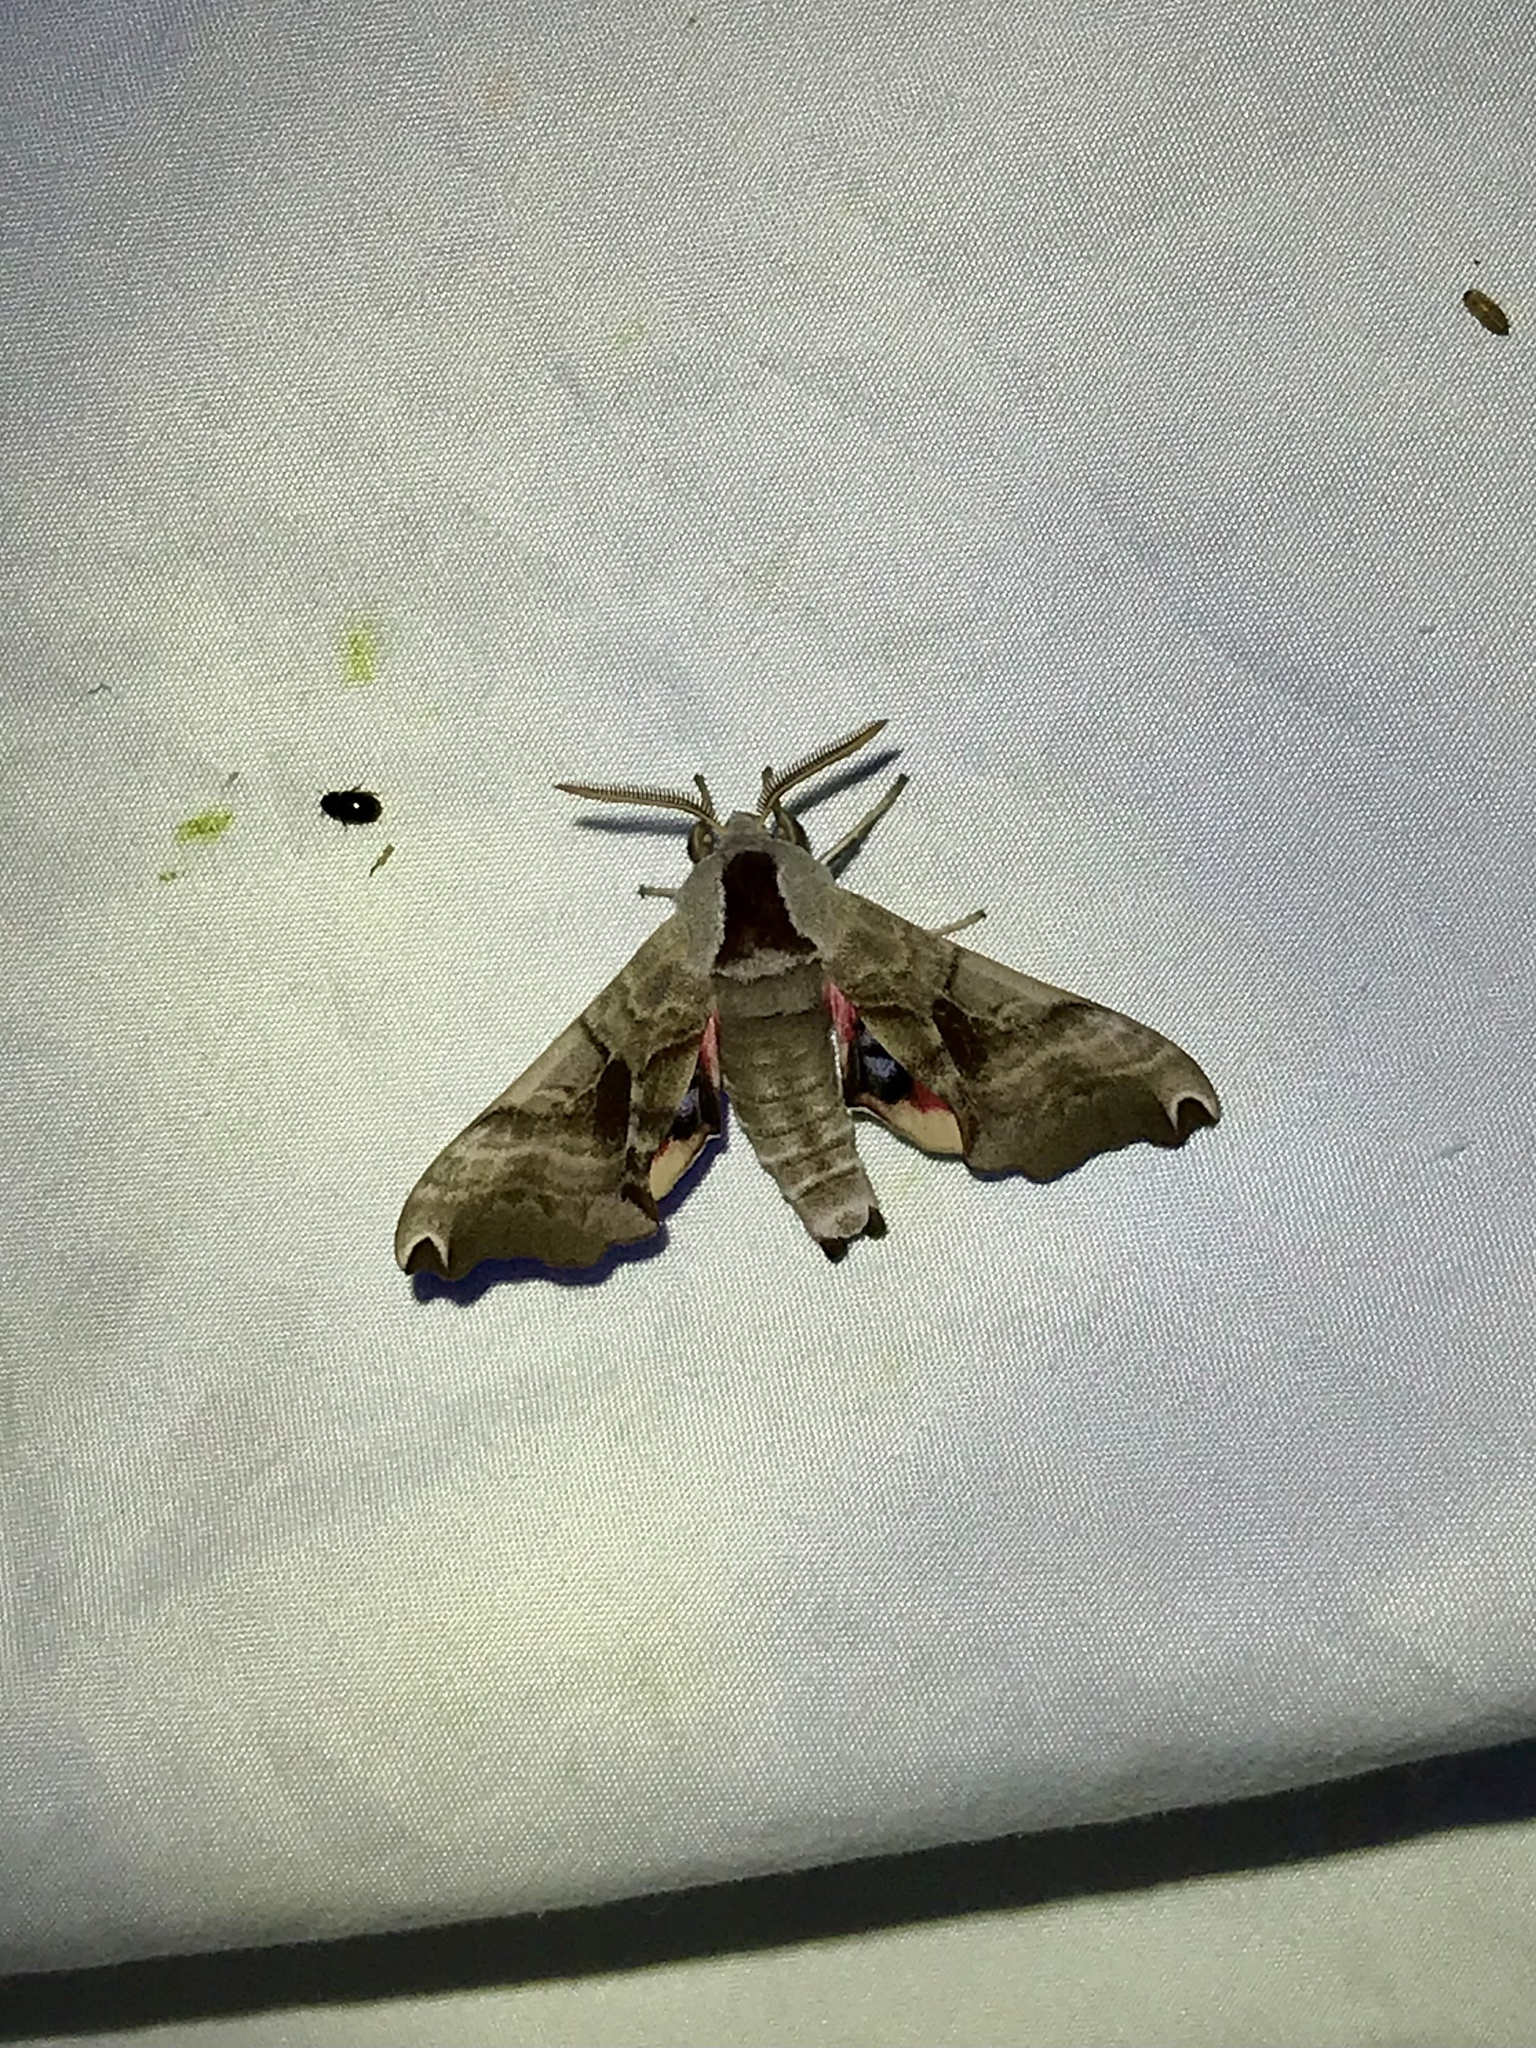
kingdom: Animalia
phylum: Arthropoda
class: Insecta
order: Lepidoptera
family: Sphingidae
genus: Smerinthus
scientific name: Smerinthus jamaicensis
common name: Twin spotted sphinx
